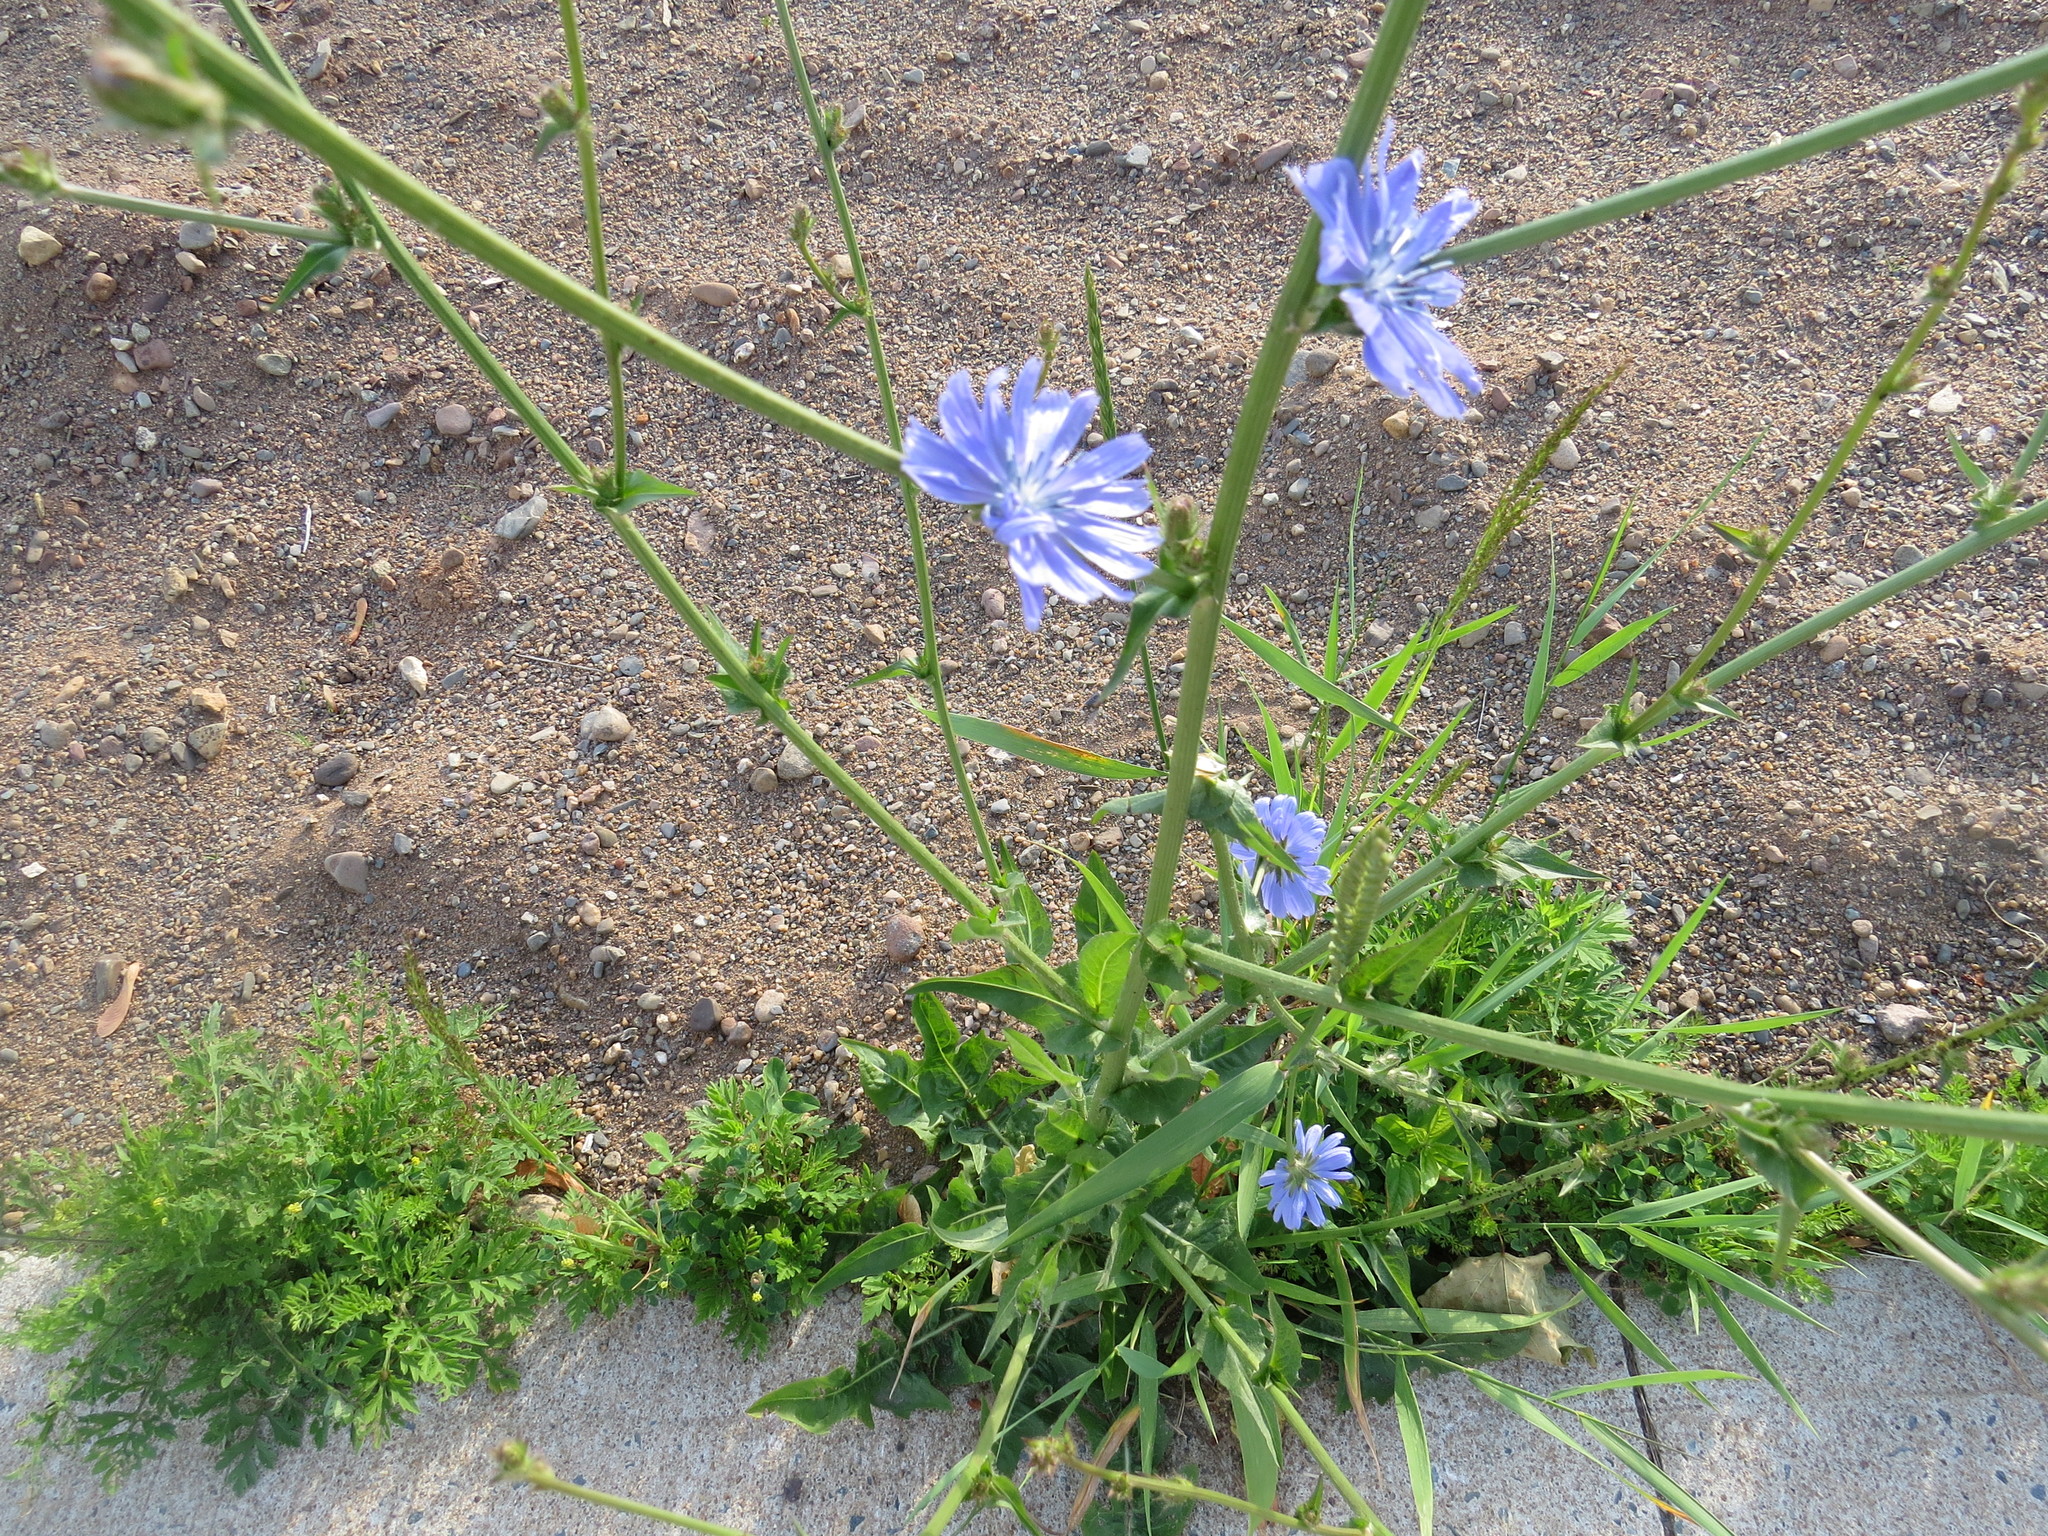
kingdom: Plantae
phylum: Tracheophyta
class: Magnoliopsida
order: Asterales
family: Asteraceae
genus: Centaurea
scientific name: Centaurea cyanus
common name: Cornflower
